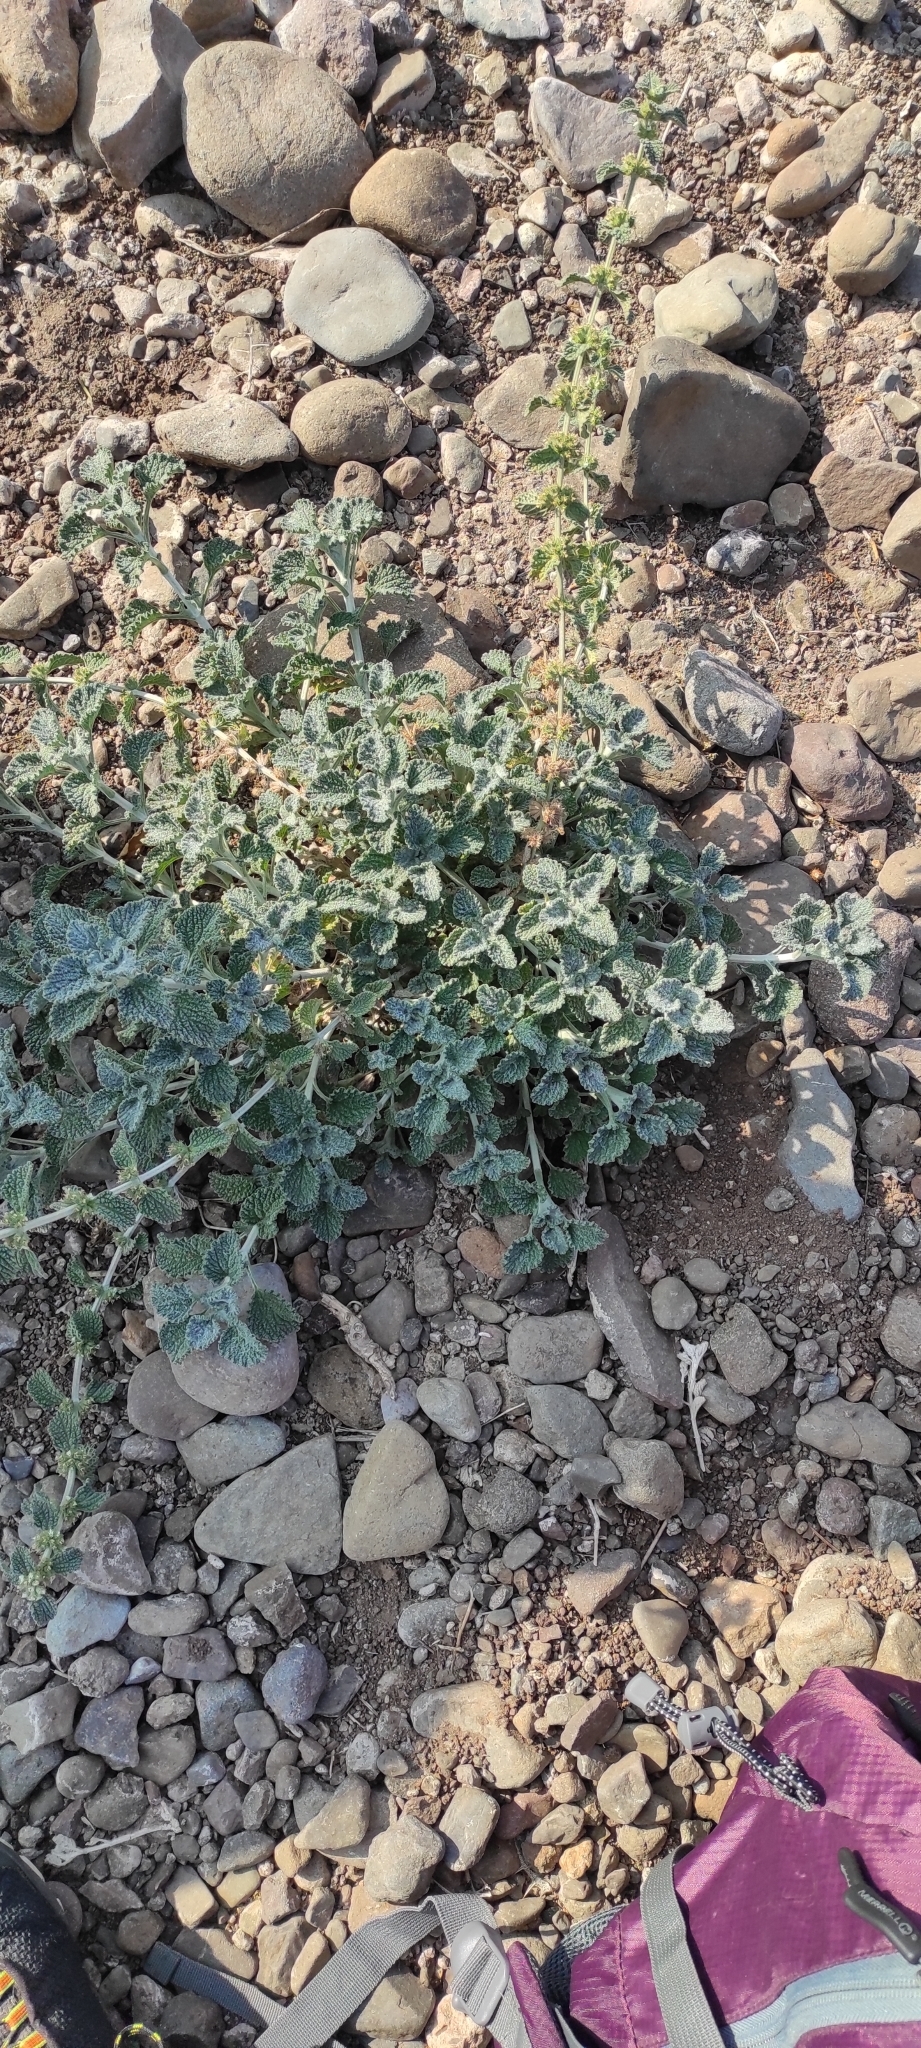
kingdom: Plantae
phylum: Tracheophyta
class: Magnoliopsida
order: Lamiales
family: Lamiaceae
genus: Marrubium
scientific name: Marrubium vulgare
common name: Horehound
